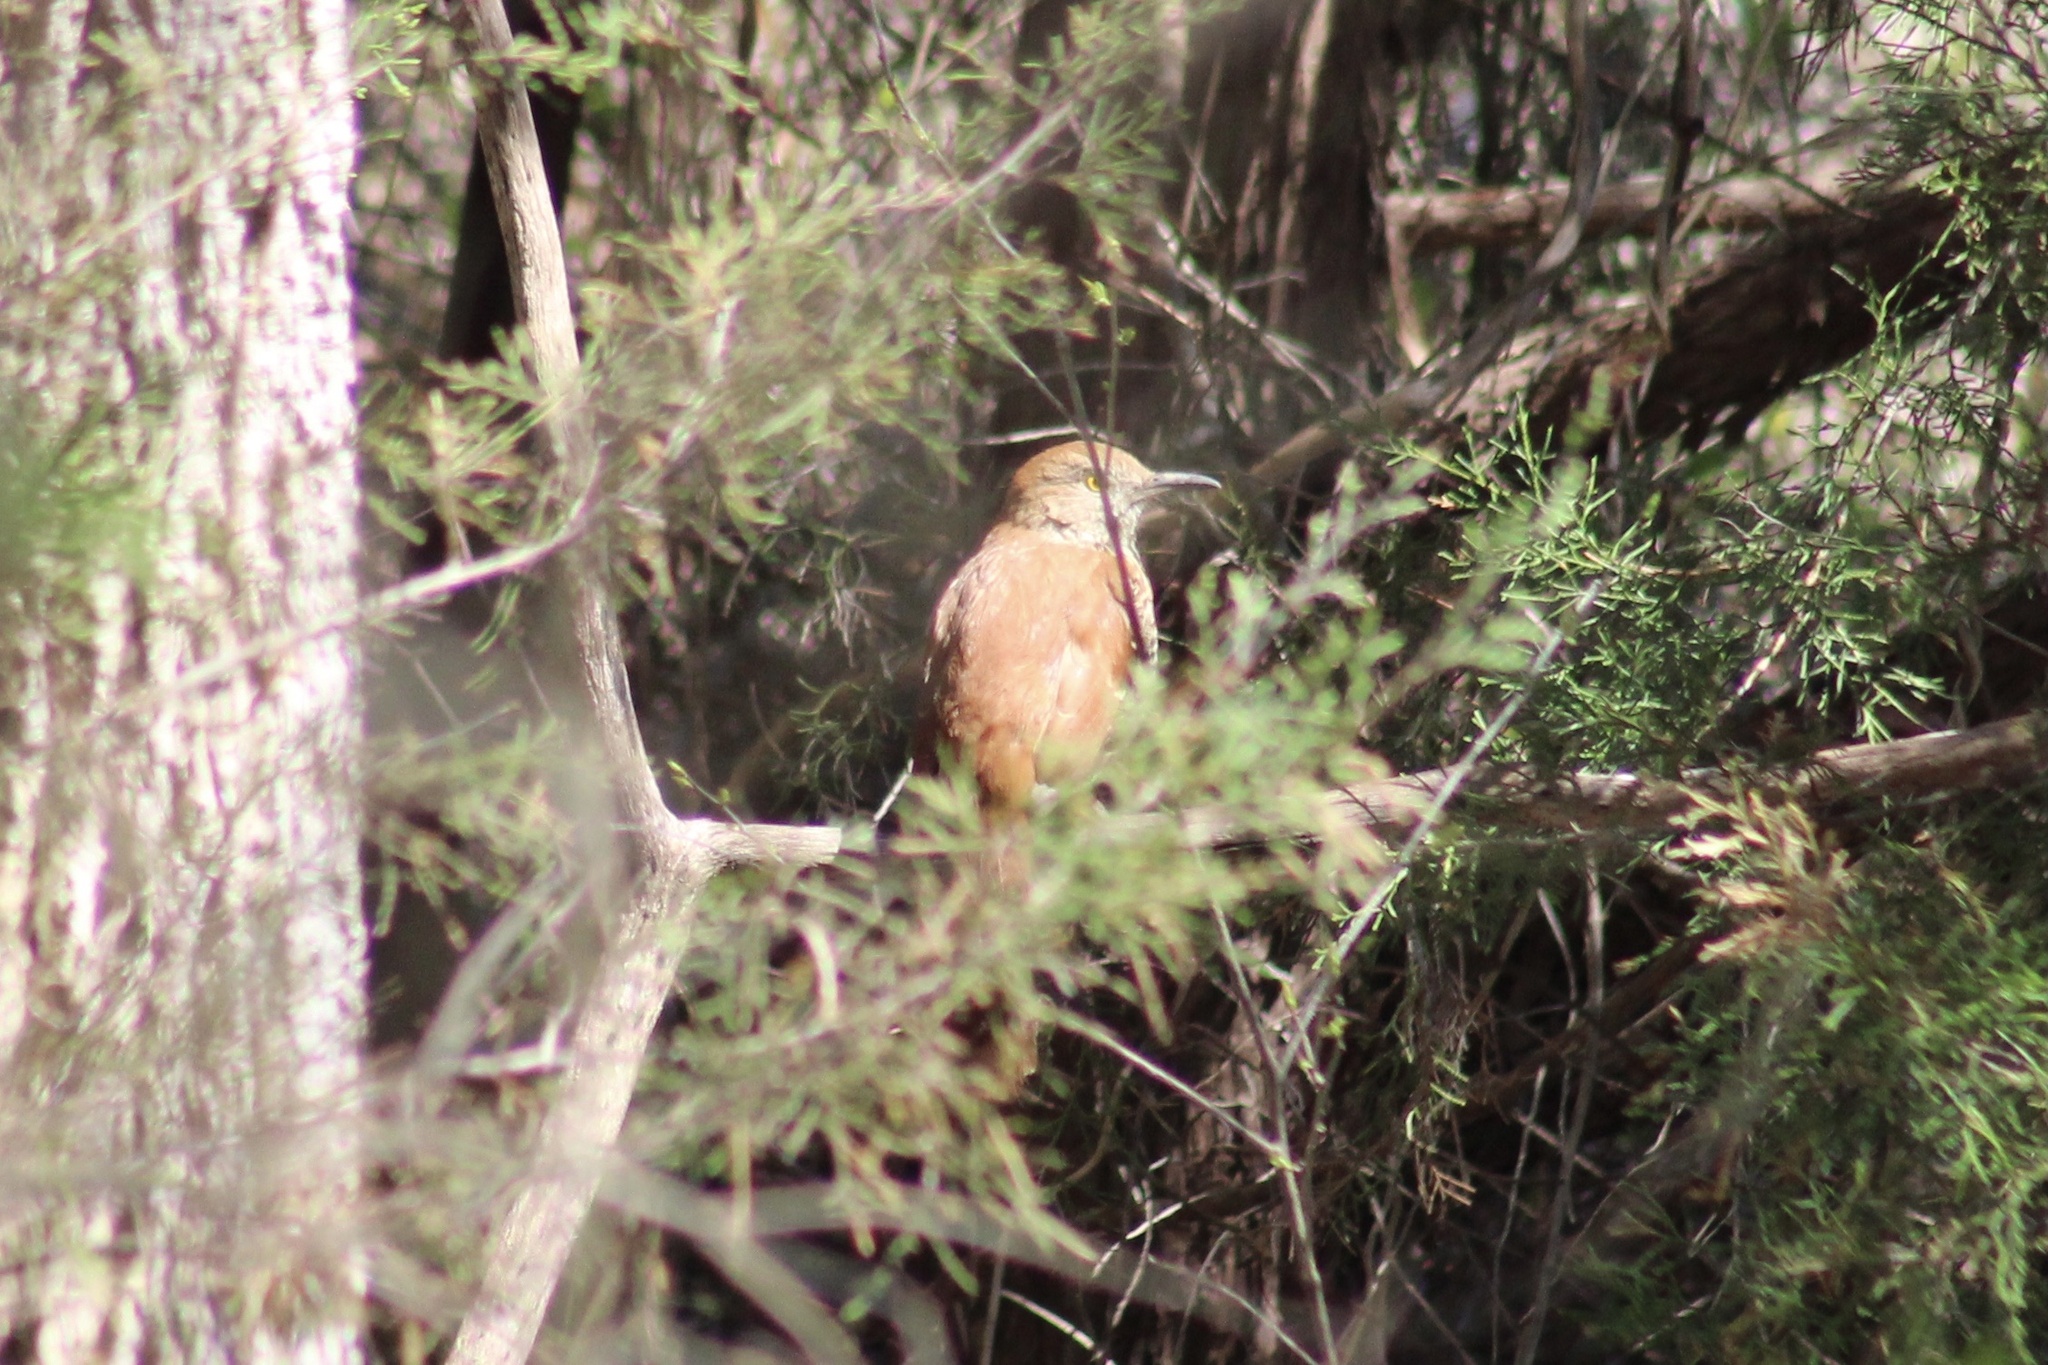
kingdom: Animalia
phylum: Chordata
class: Aves
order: Passeriformes
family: Mimidae
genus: Toxostoma
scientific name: Toxostoma rufum
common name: Brown thrasher
